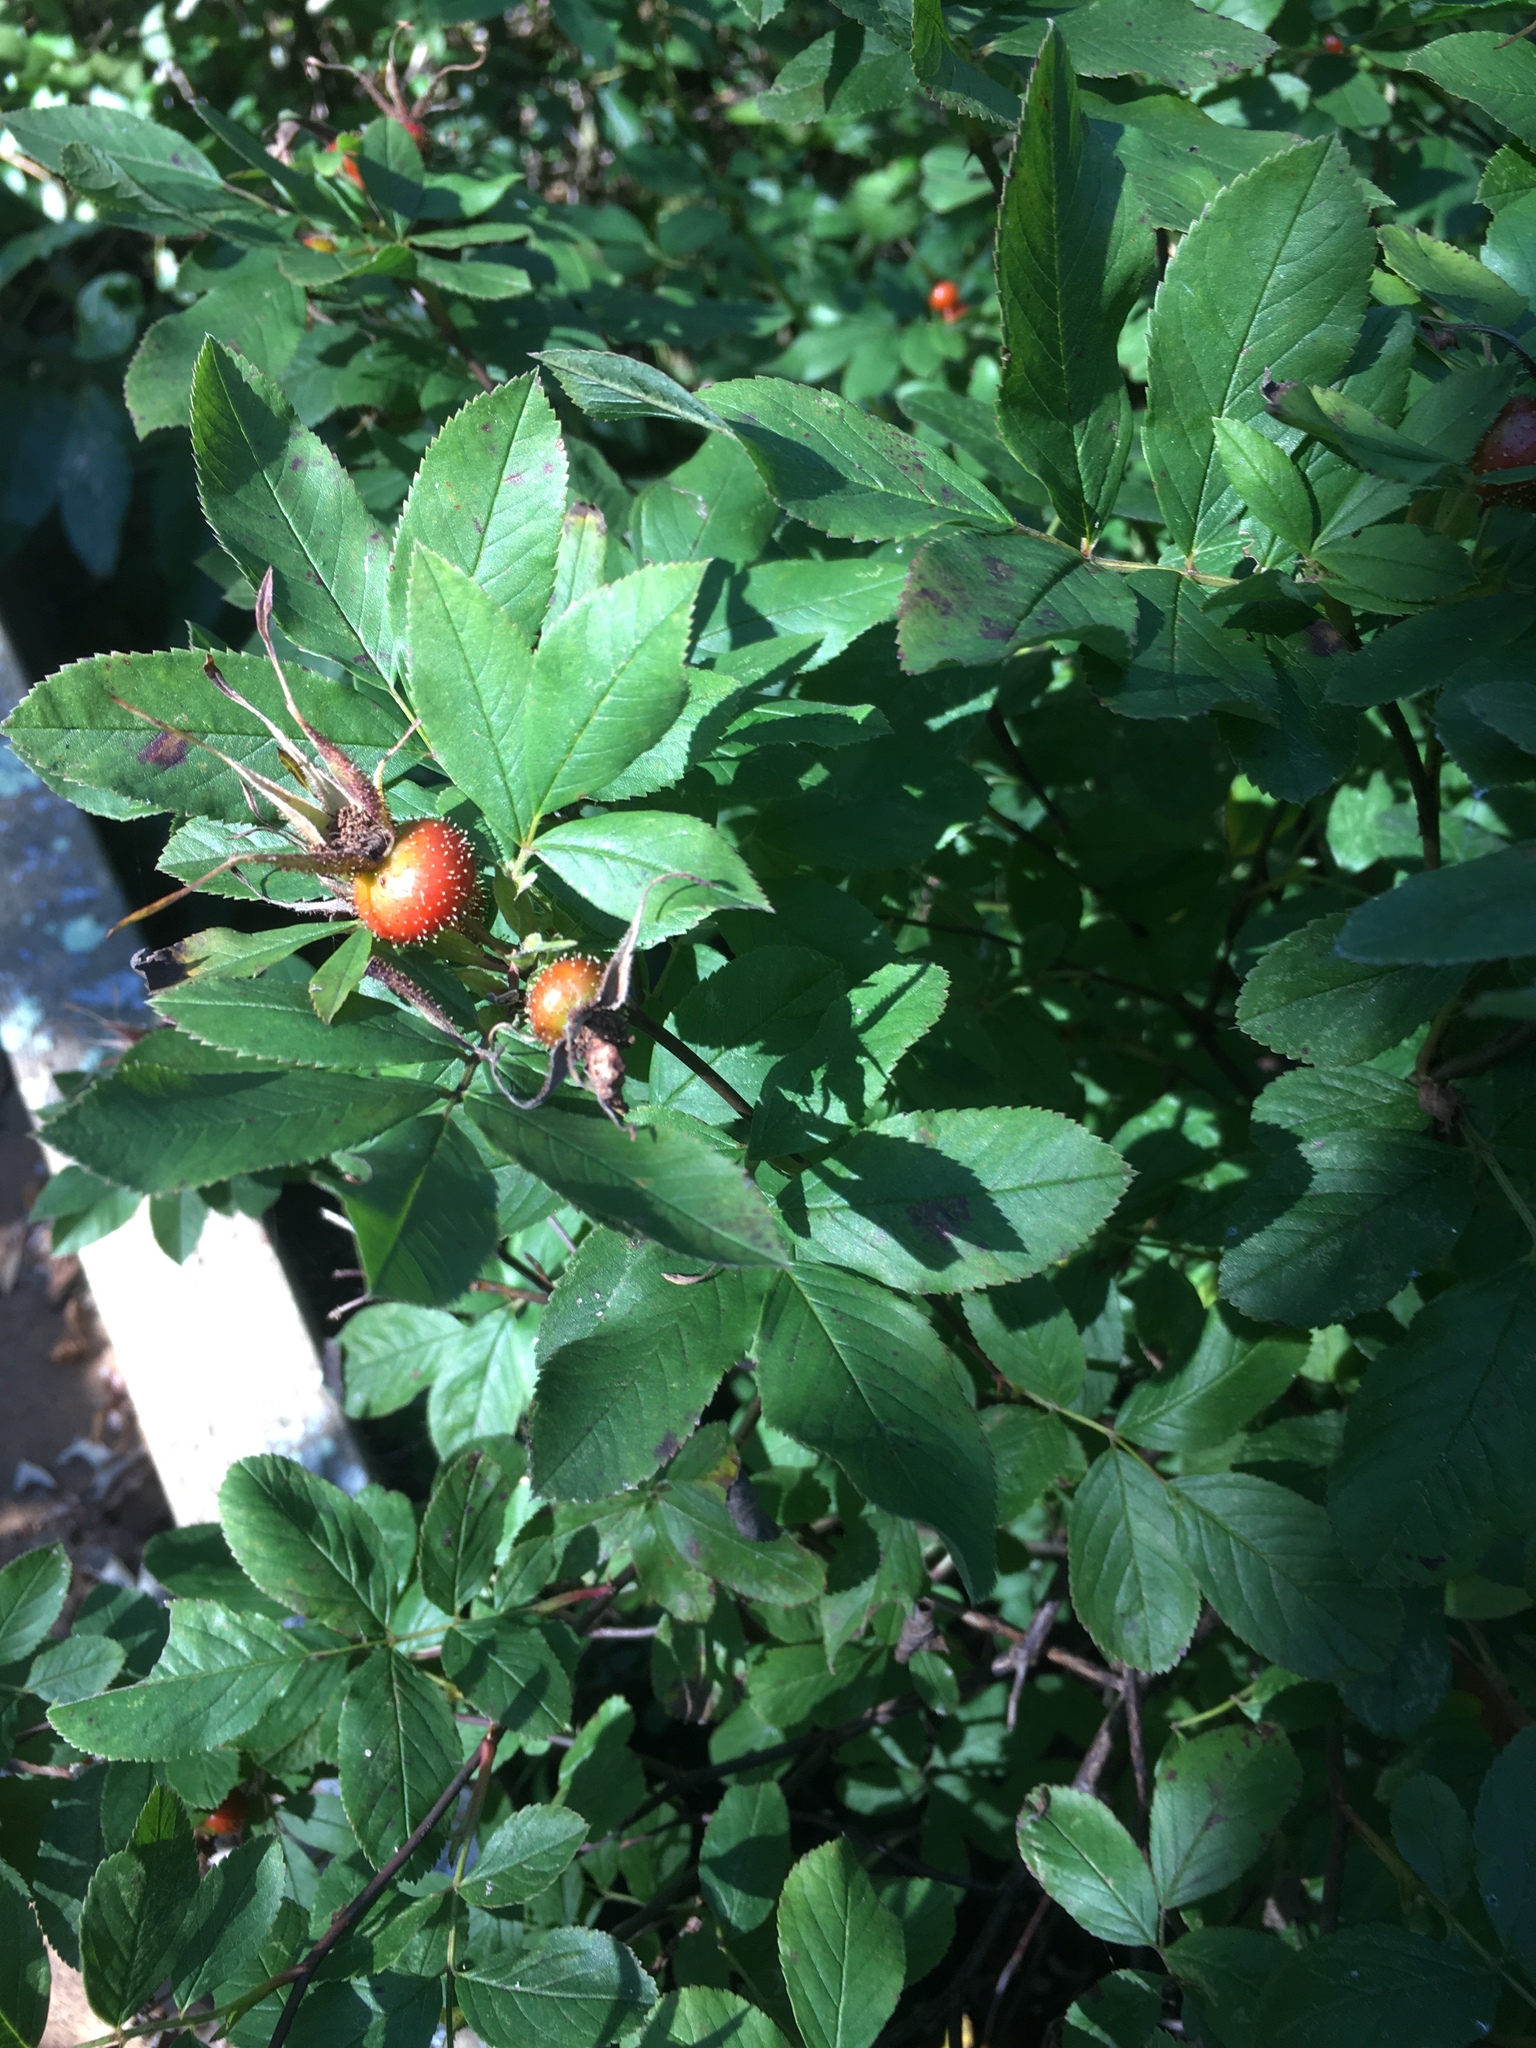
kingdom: Plantae
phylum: Tracheophyta
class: Magnoliopsida
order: Rosales
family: Rosaceae
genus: Rosa
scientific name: Rosa palustris
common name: Swamp rose
